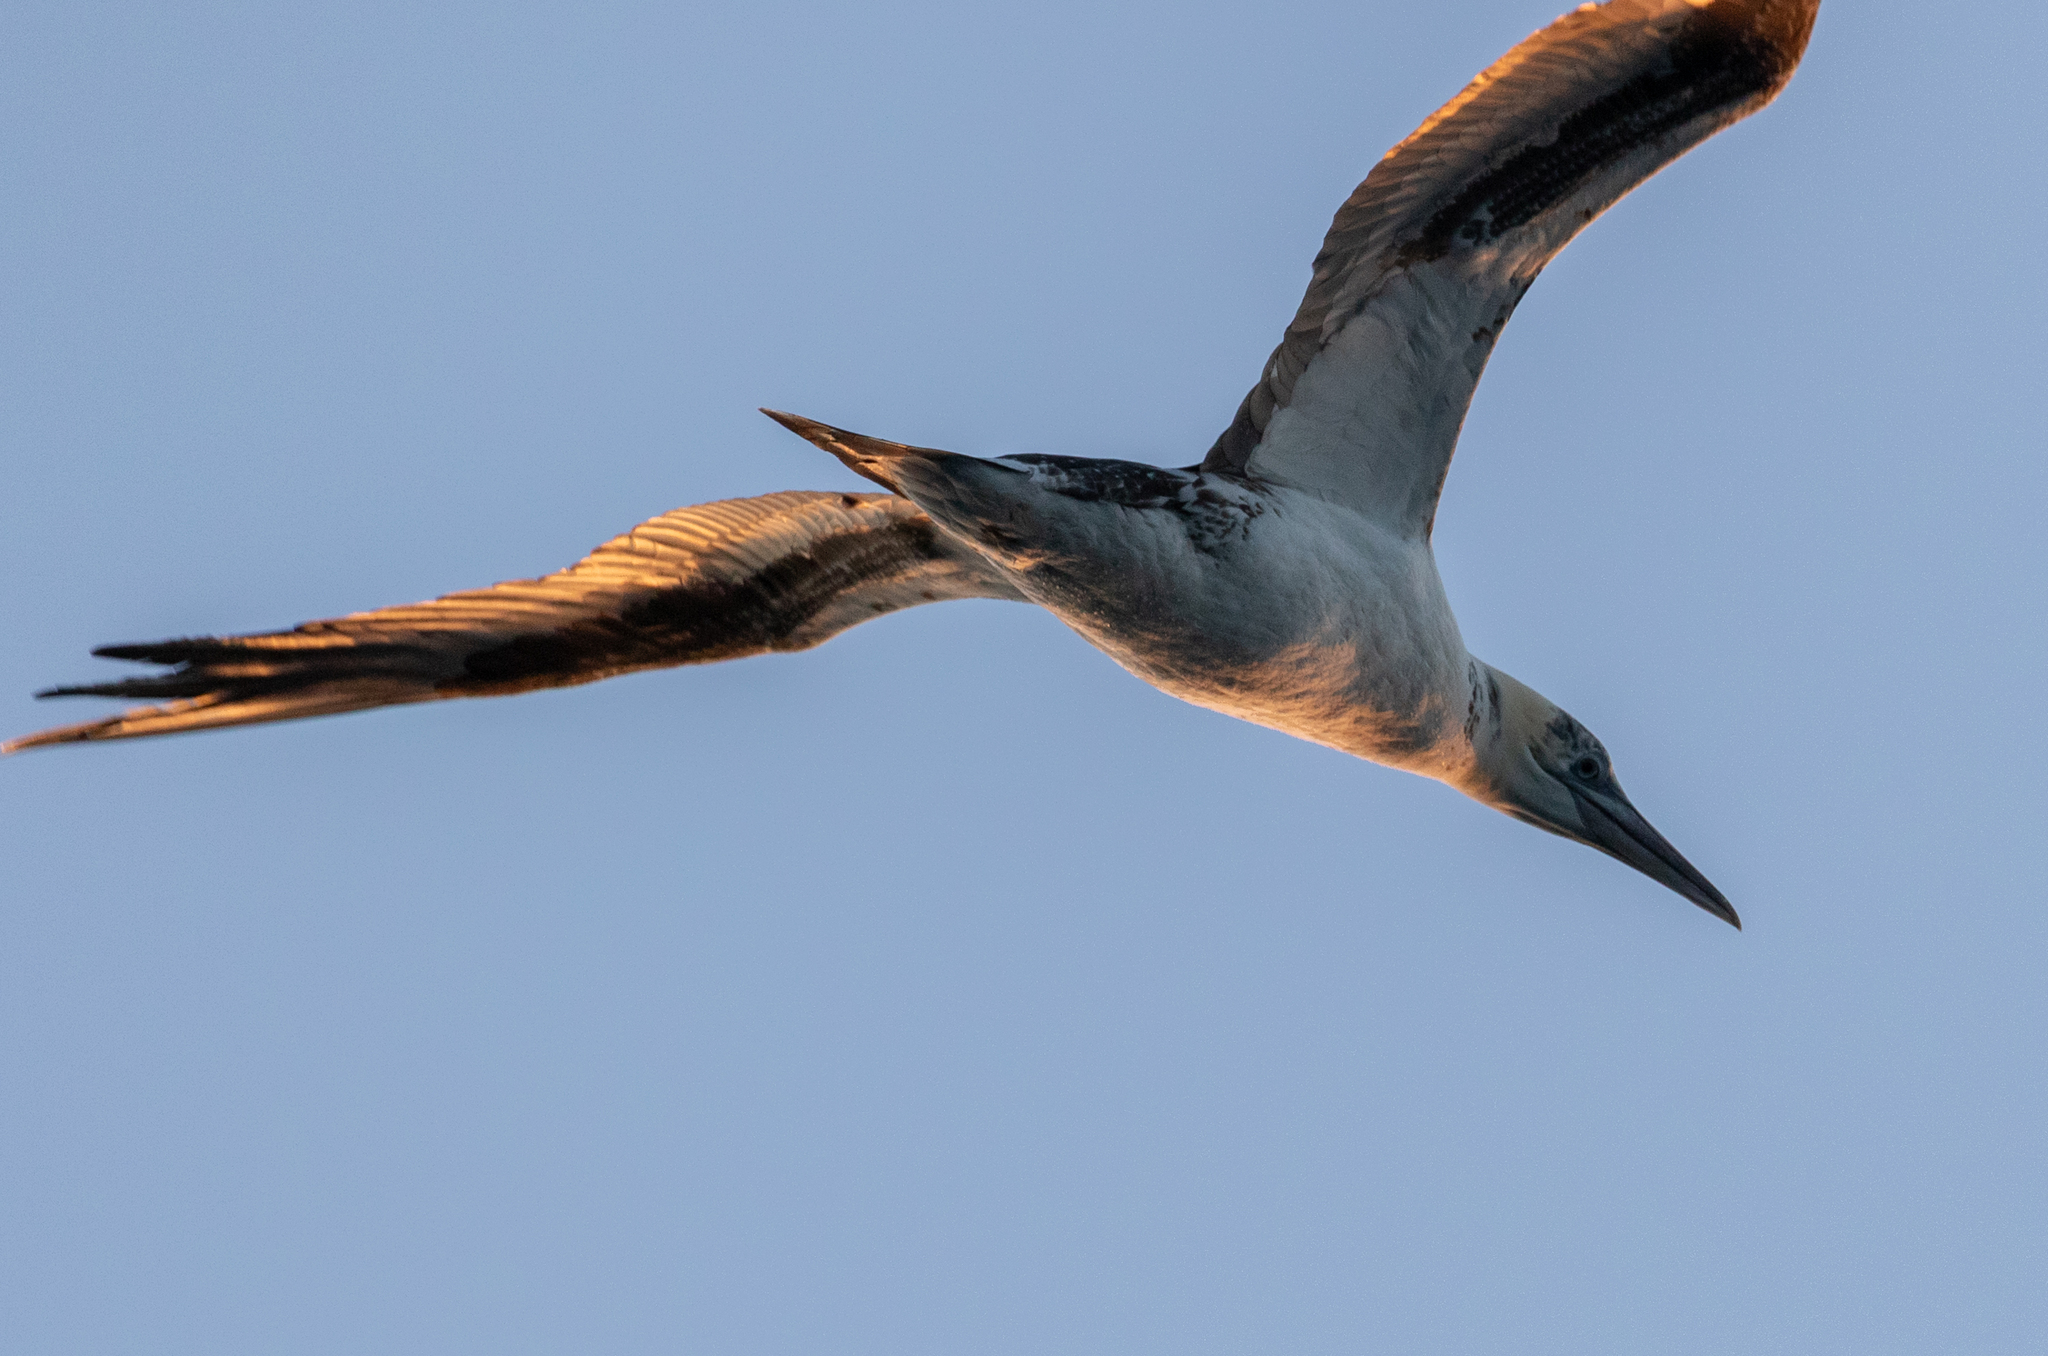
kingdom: Animalia
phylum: Chordata
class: Aves
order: Suliformes
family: Sulidae
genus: Morus
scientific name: Morus bassanus
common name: Northern gannet
